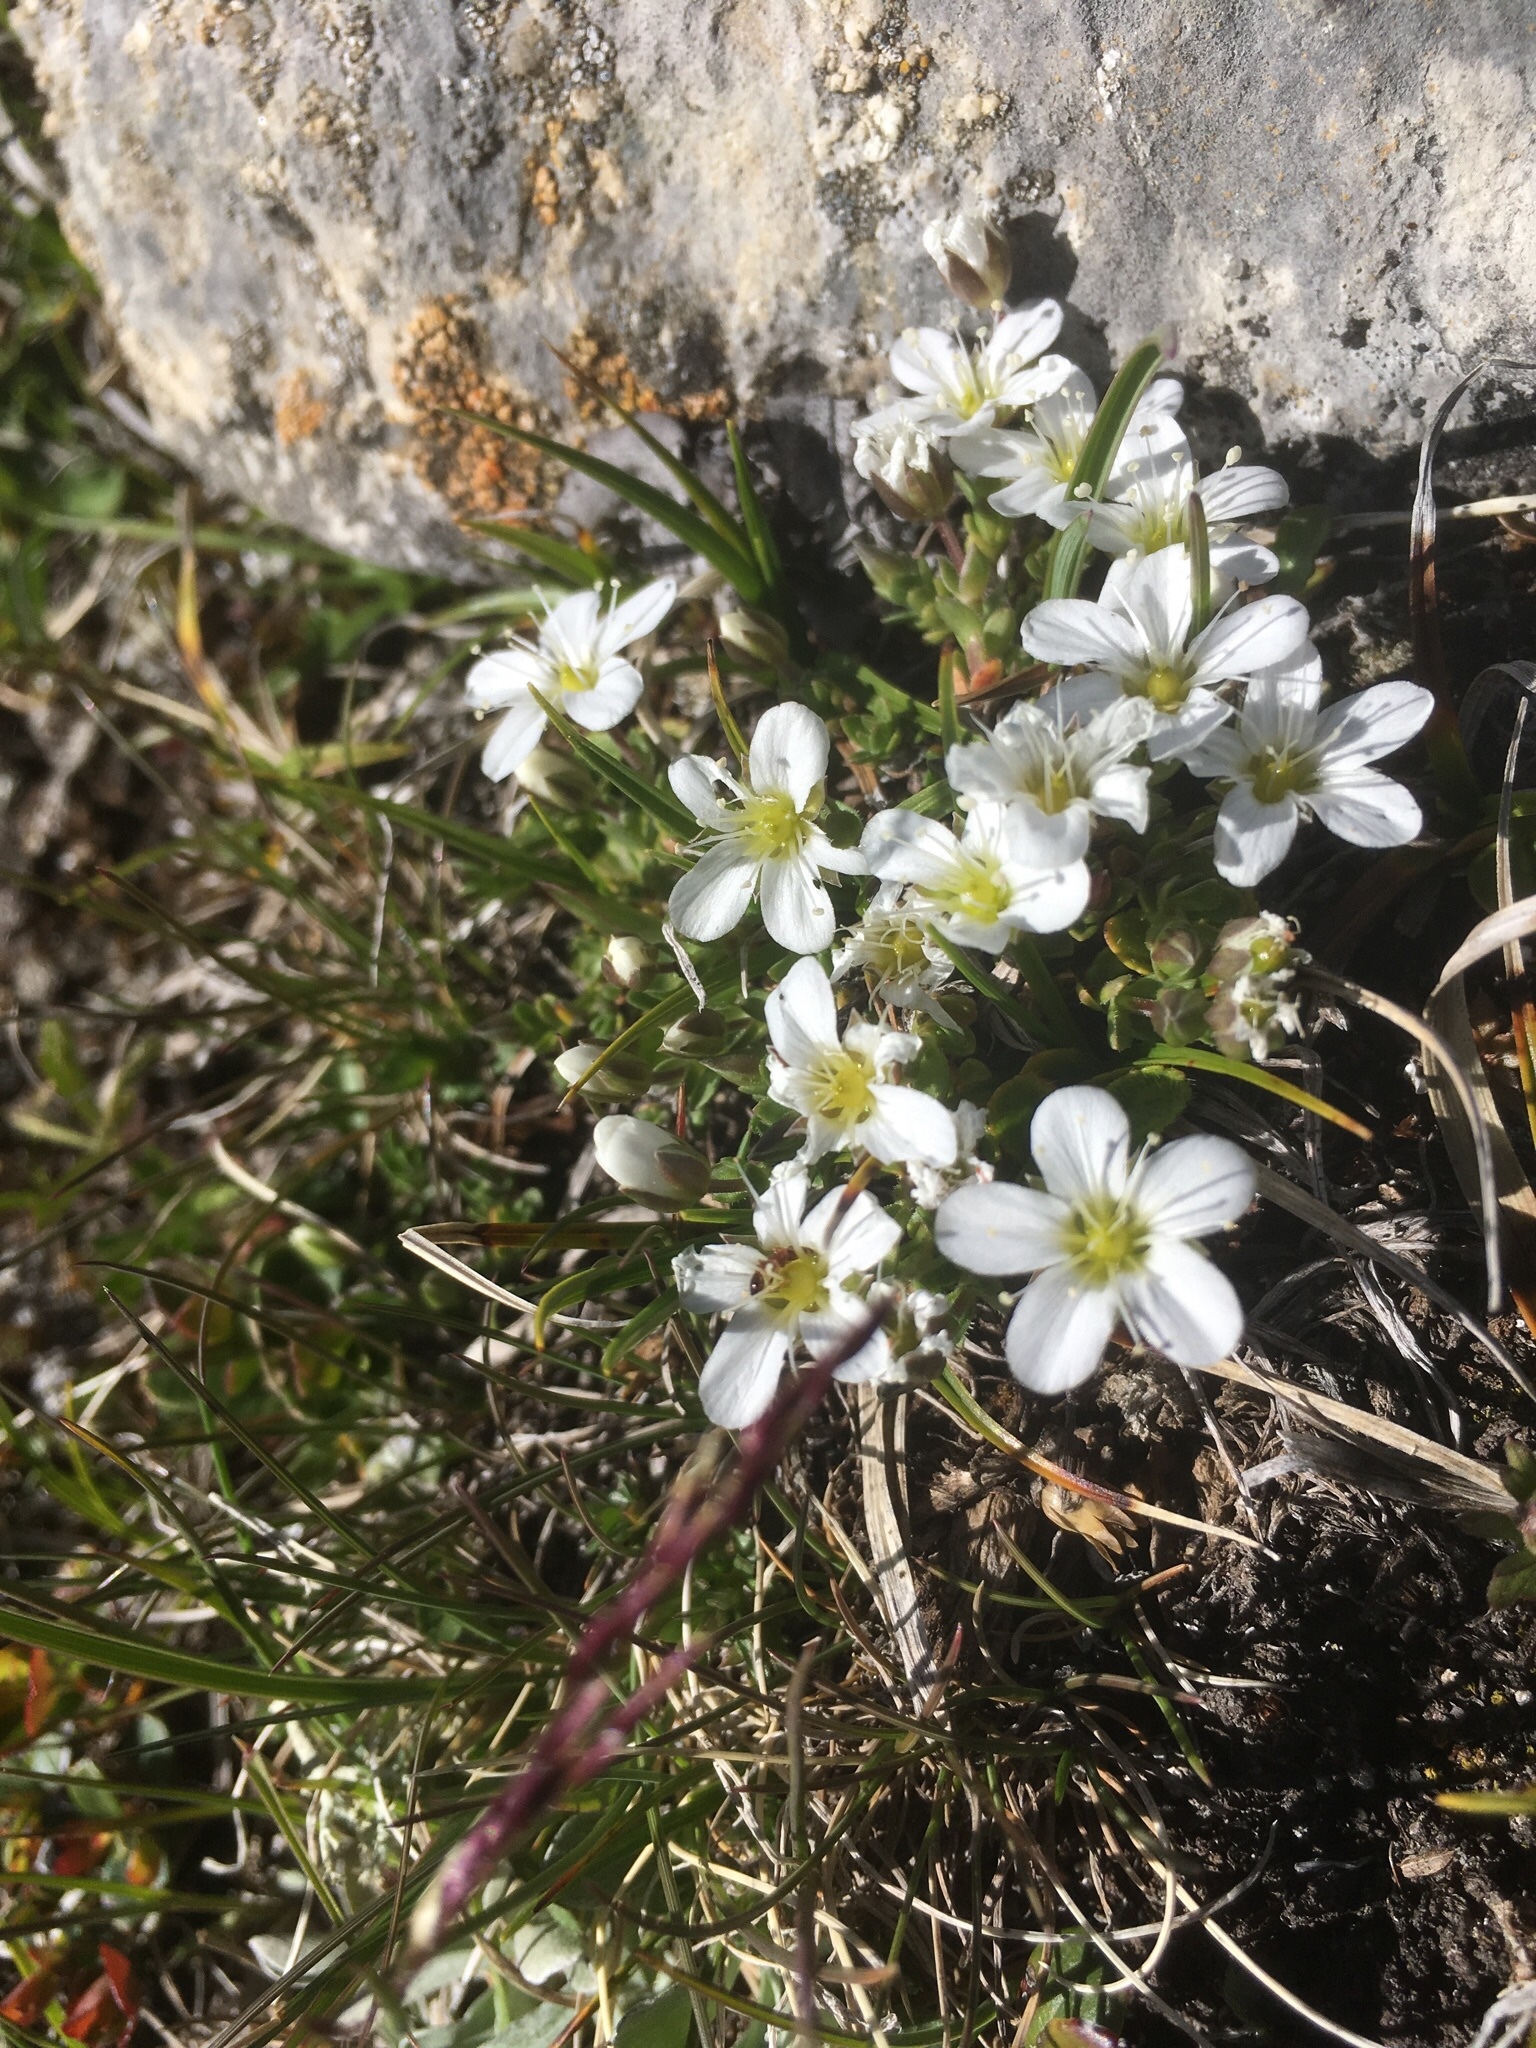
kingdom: Plantae
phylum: Tracheophyta
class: Magnoliopsida
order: Caryophyllales
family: Caryophyllaceae
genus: Arenaria
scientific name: Arenaria ciliata
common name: Fringed sandwort
